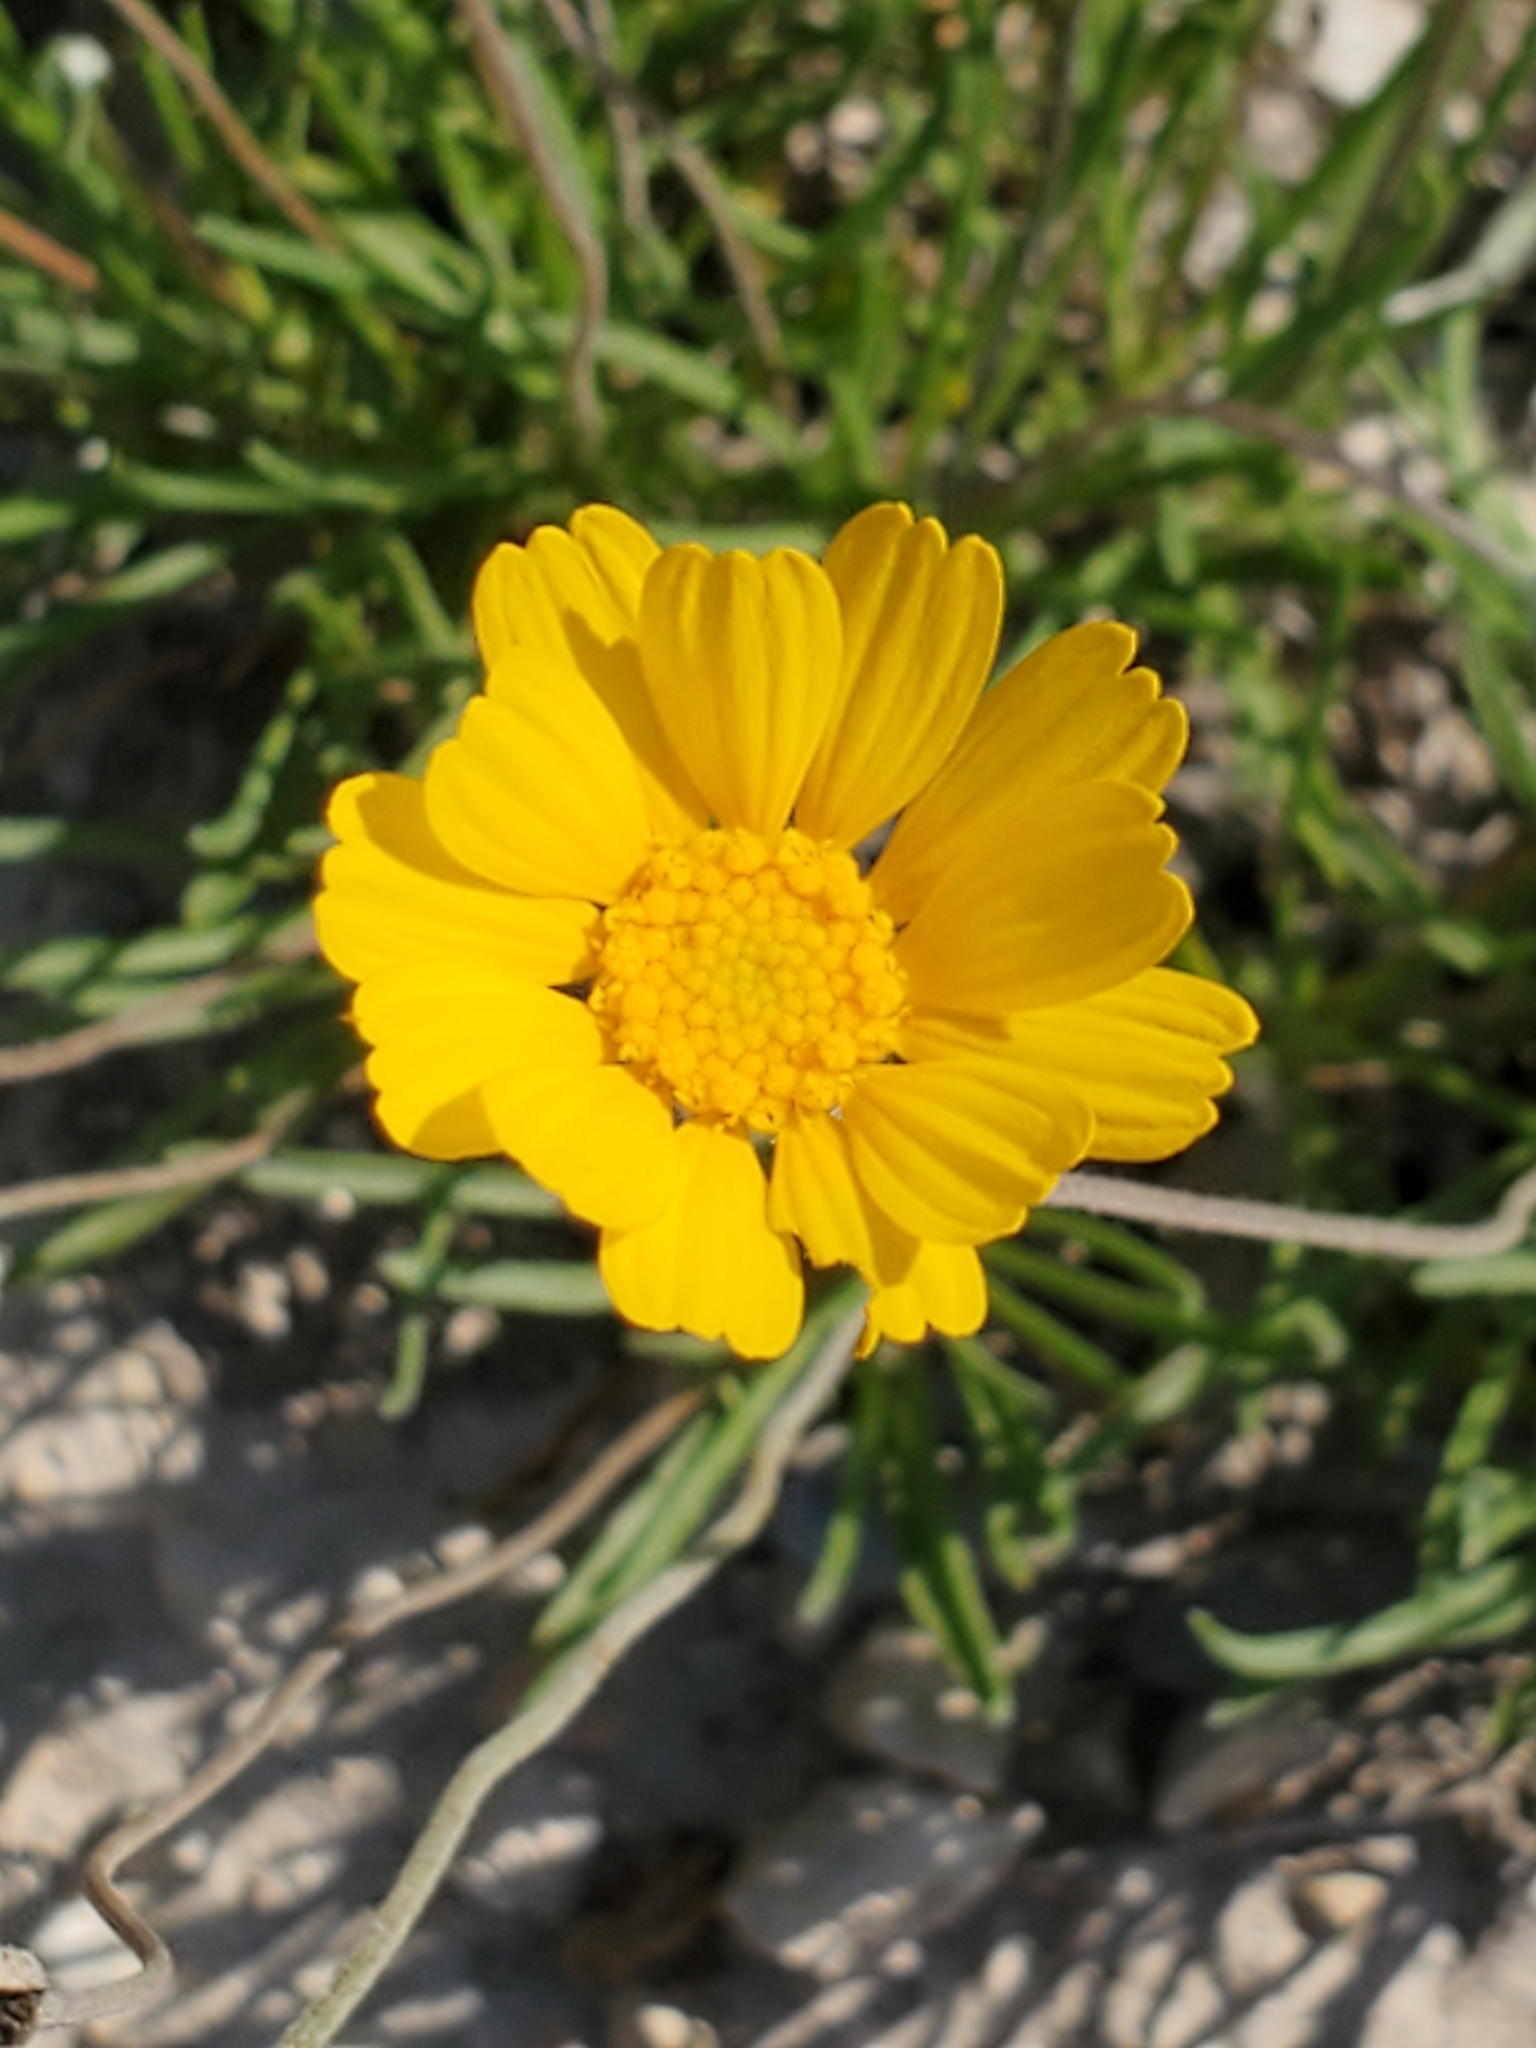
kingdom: Plantae
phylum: Tracheophyta
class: Magnoliopsida
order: Asterales
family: Asteraceae
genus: Tetraneuris
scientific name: Tetraneuris scaposa
